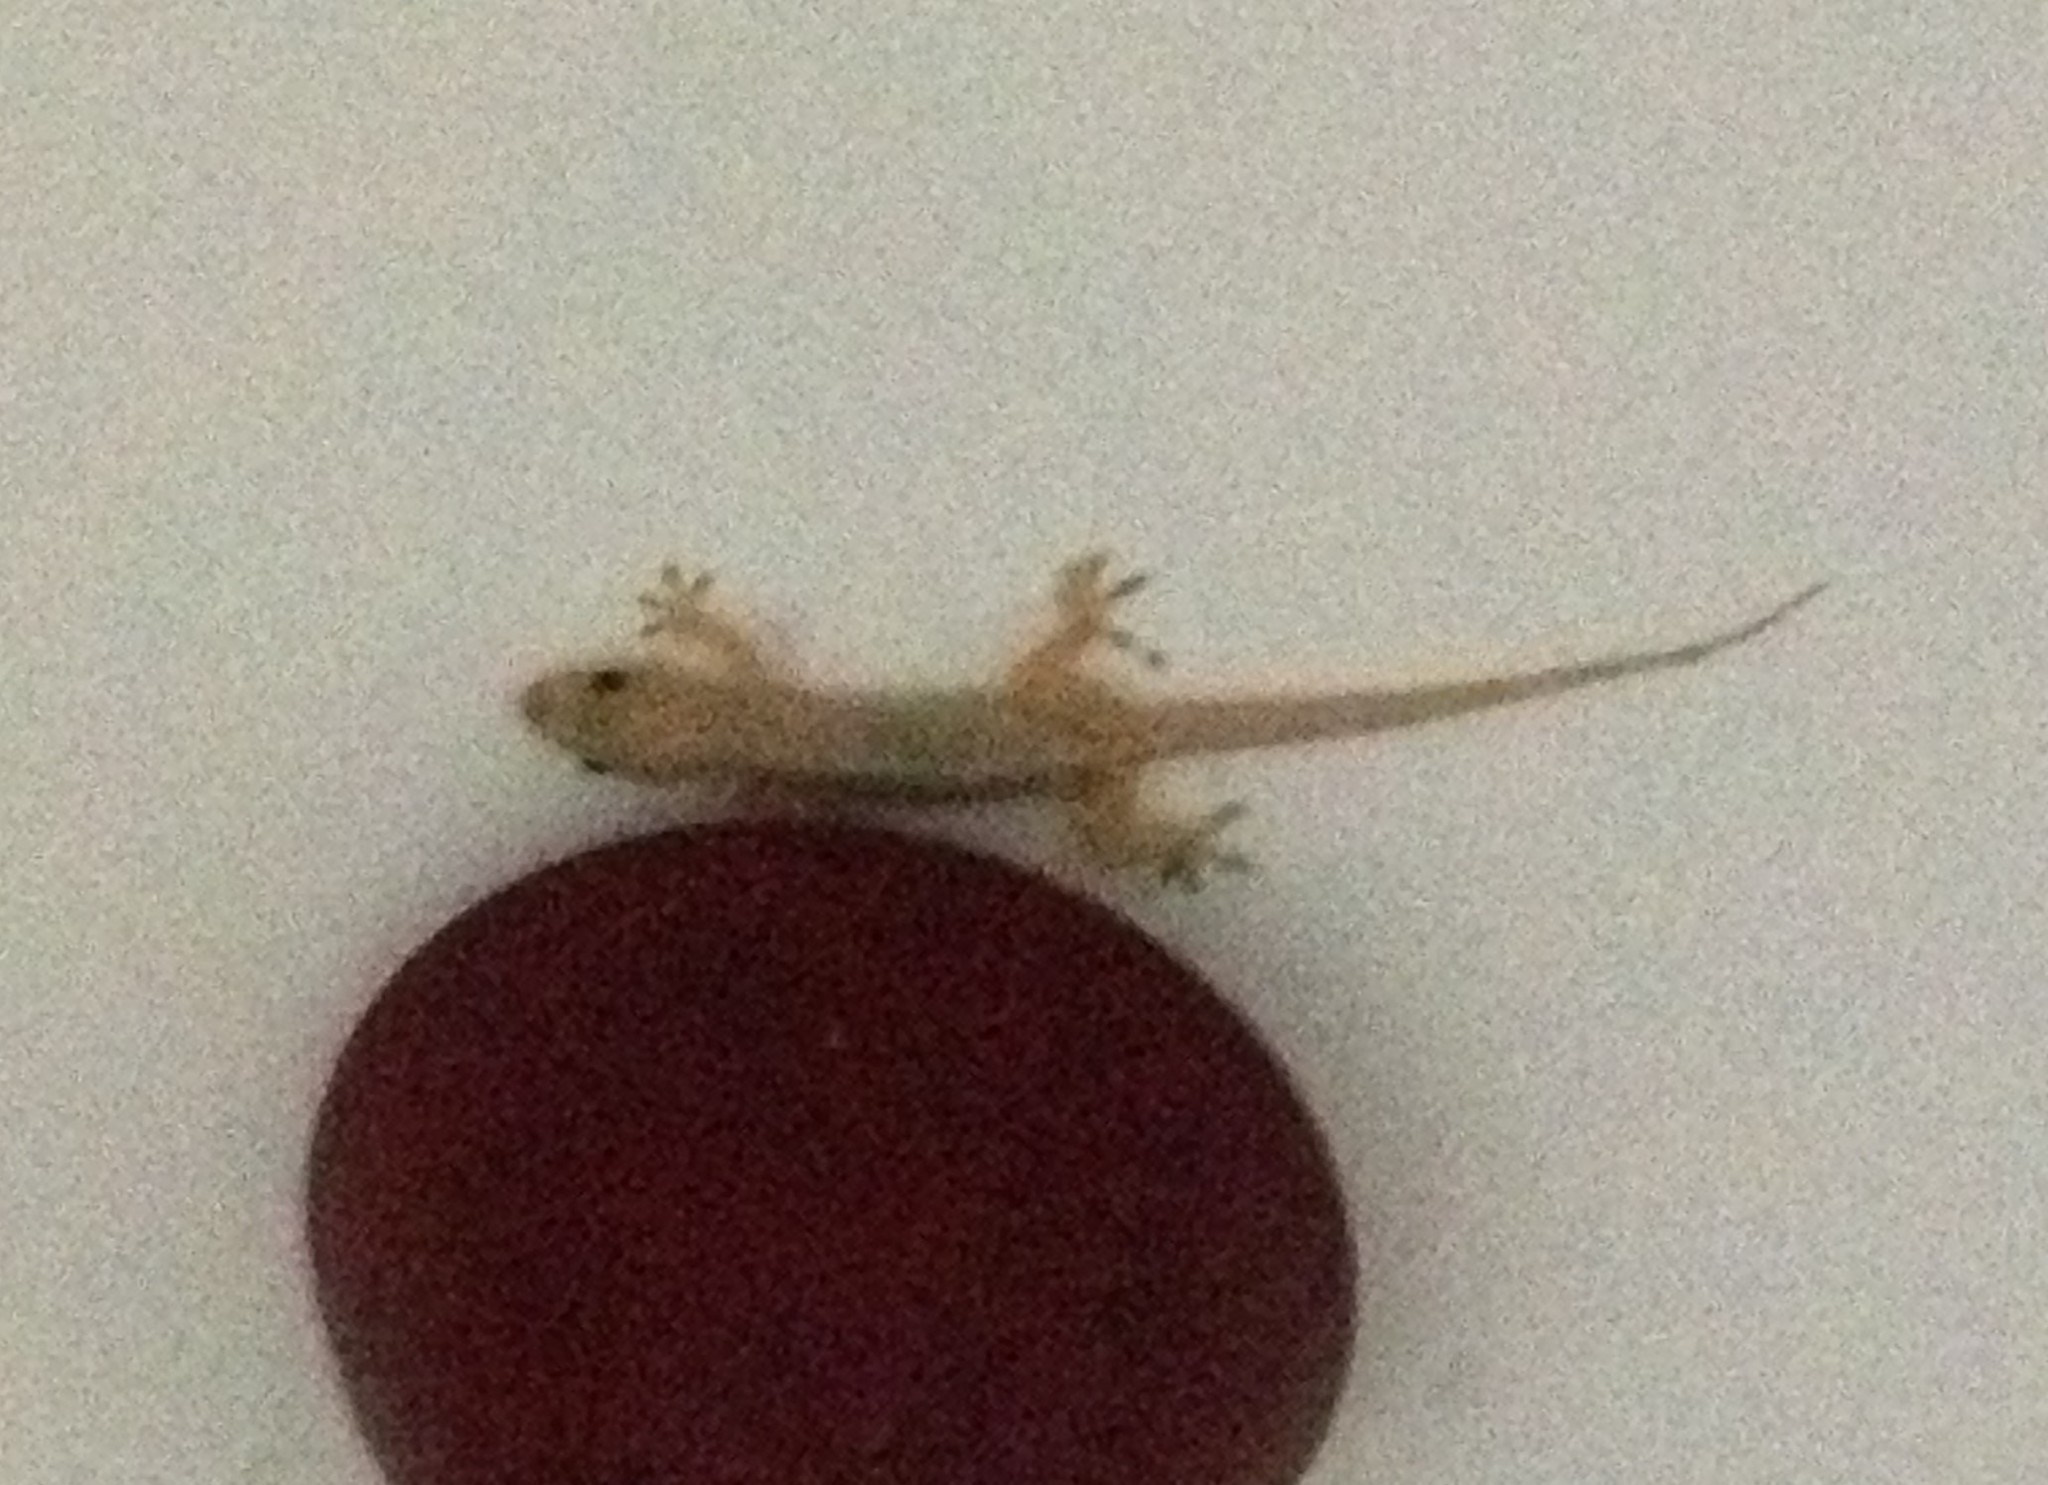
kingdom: Animalia
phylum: Chordata
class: Squamata
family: Gekkonidae
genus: Hemidactylus
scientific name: Hemidactylus mabouia
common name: House gecko
